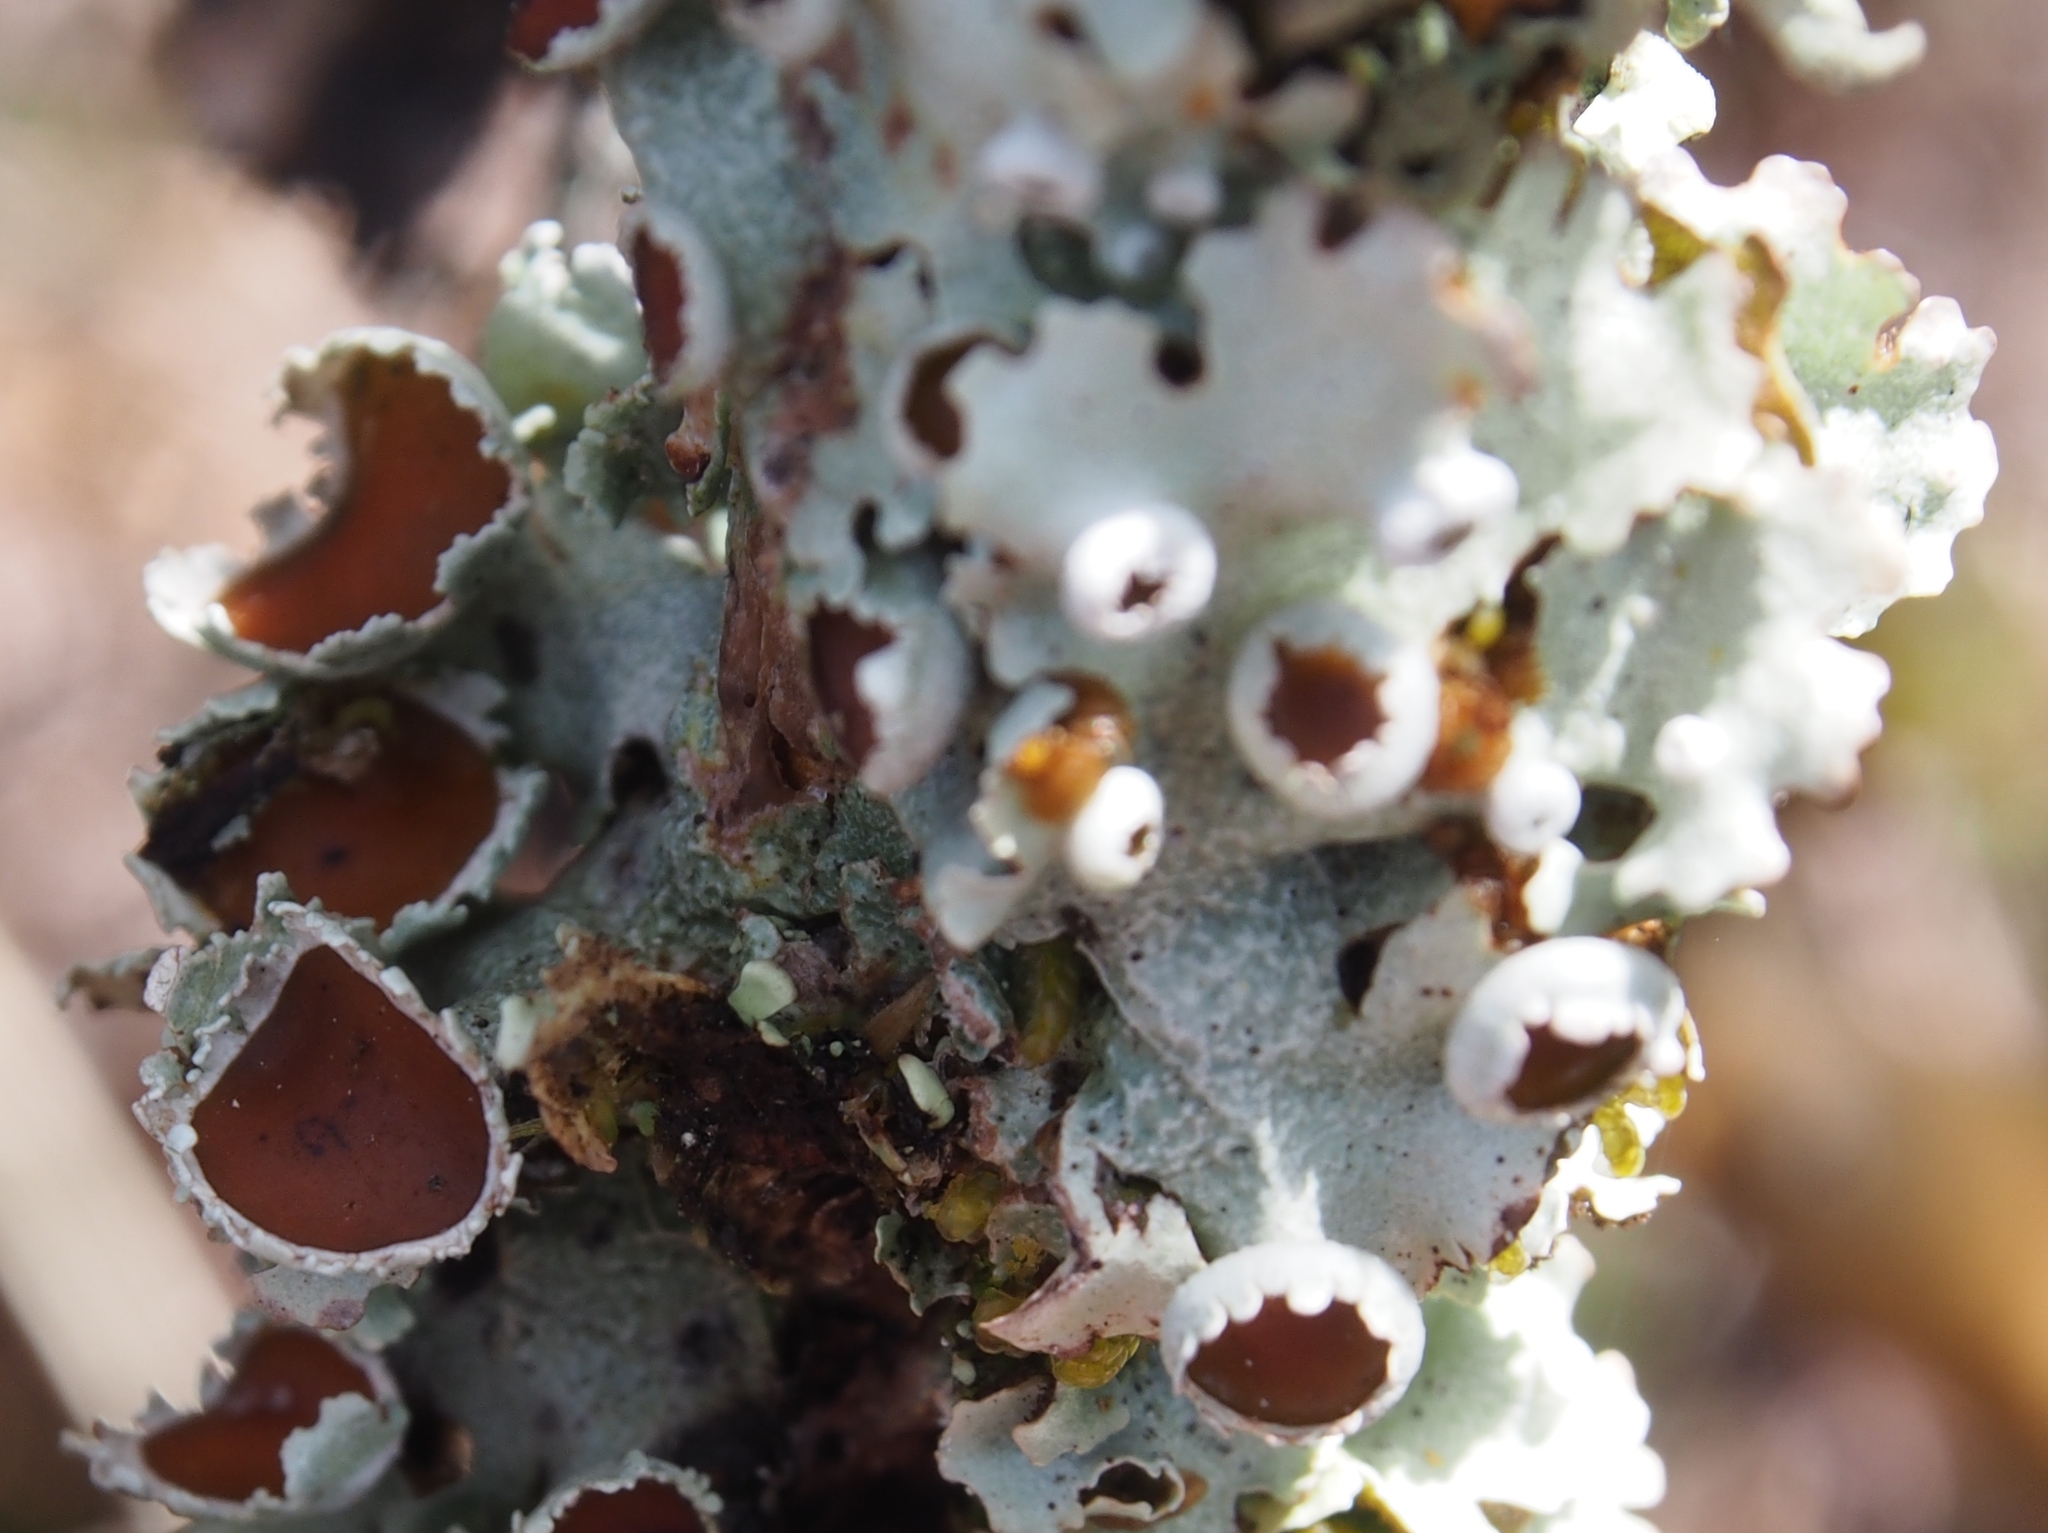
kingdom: Fungi
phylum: Ascomycota
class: Lecanoromycetes
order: Peltigerales
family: Lobariaceae
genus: Lobariella
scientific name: Lobariella pallida
